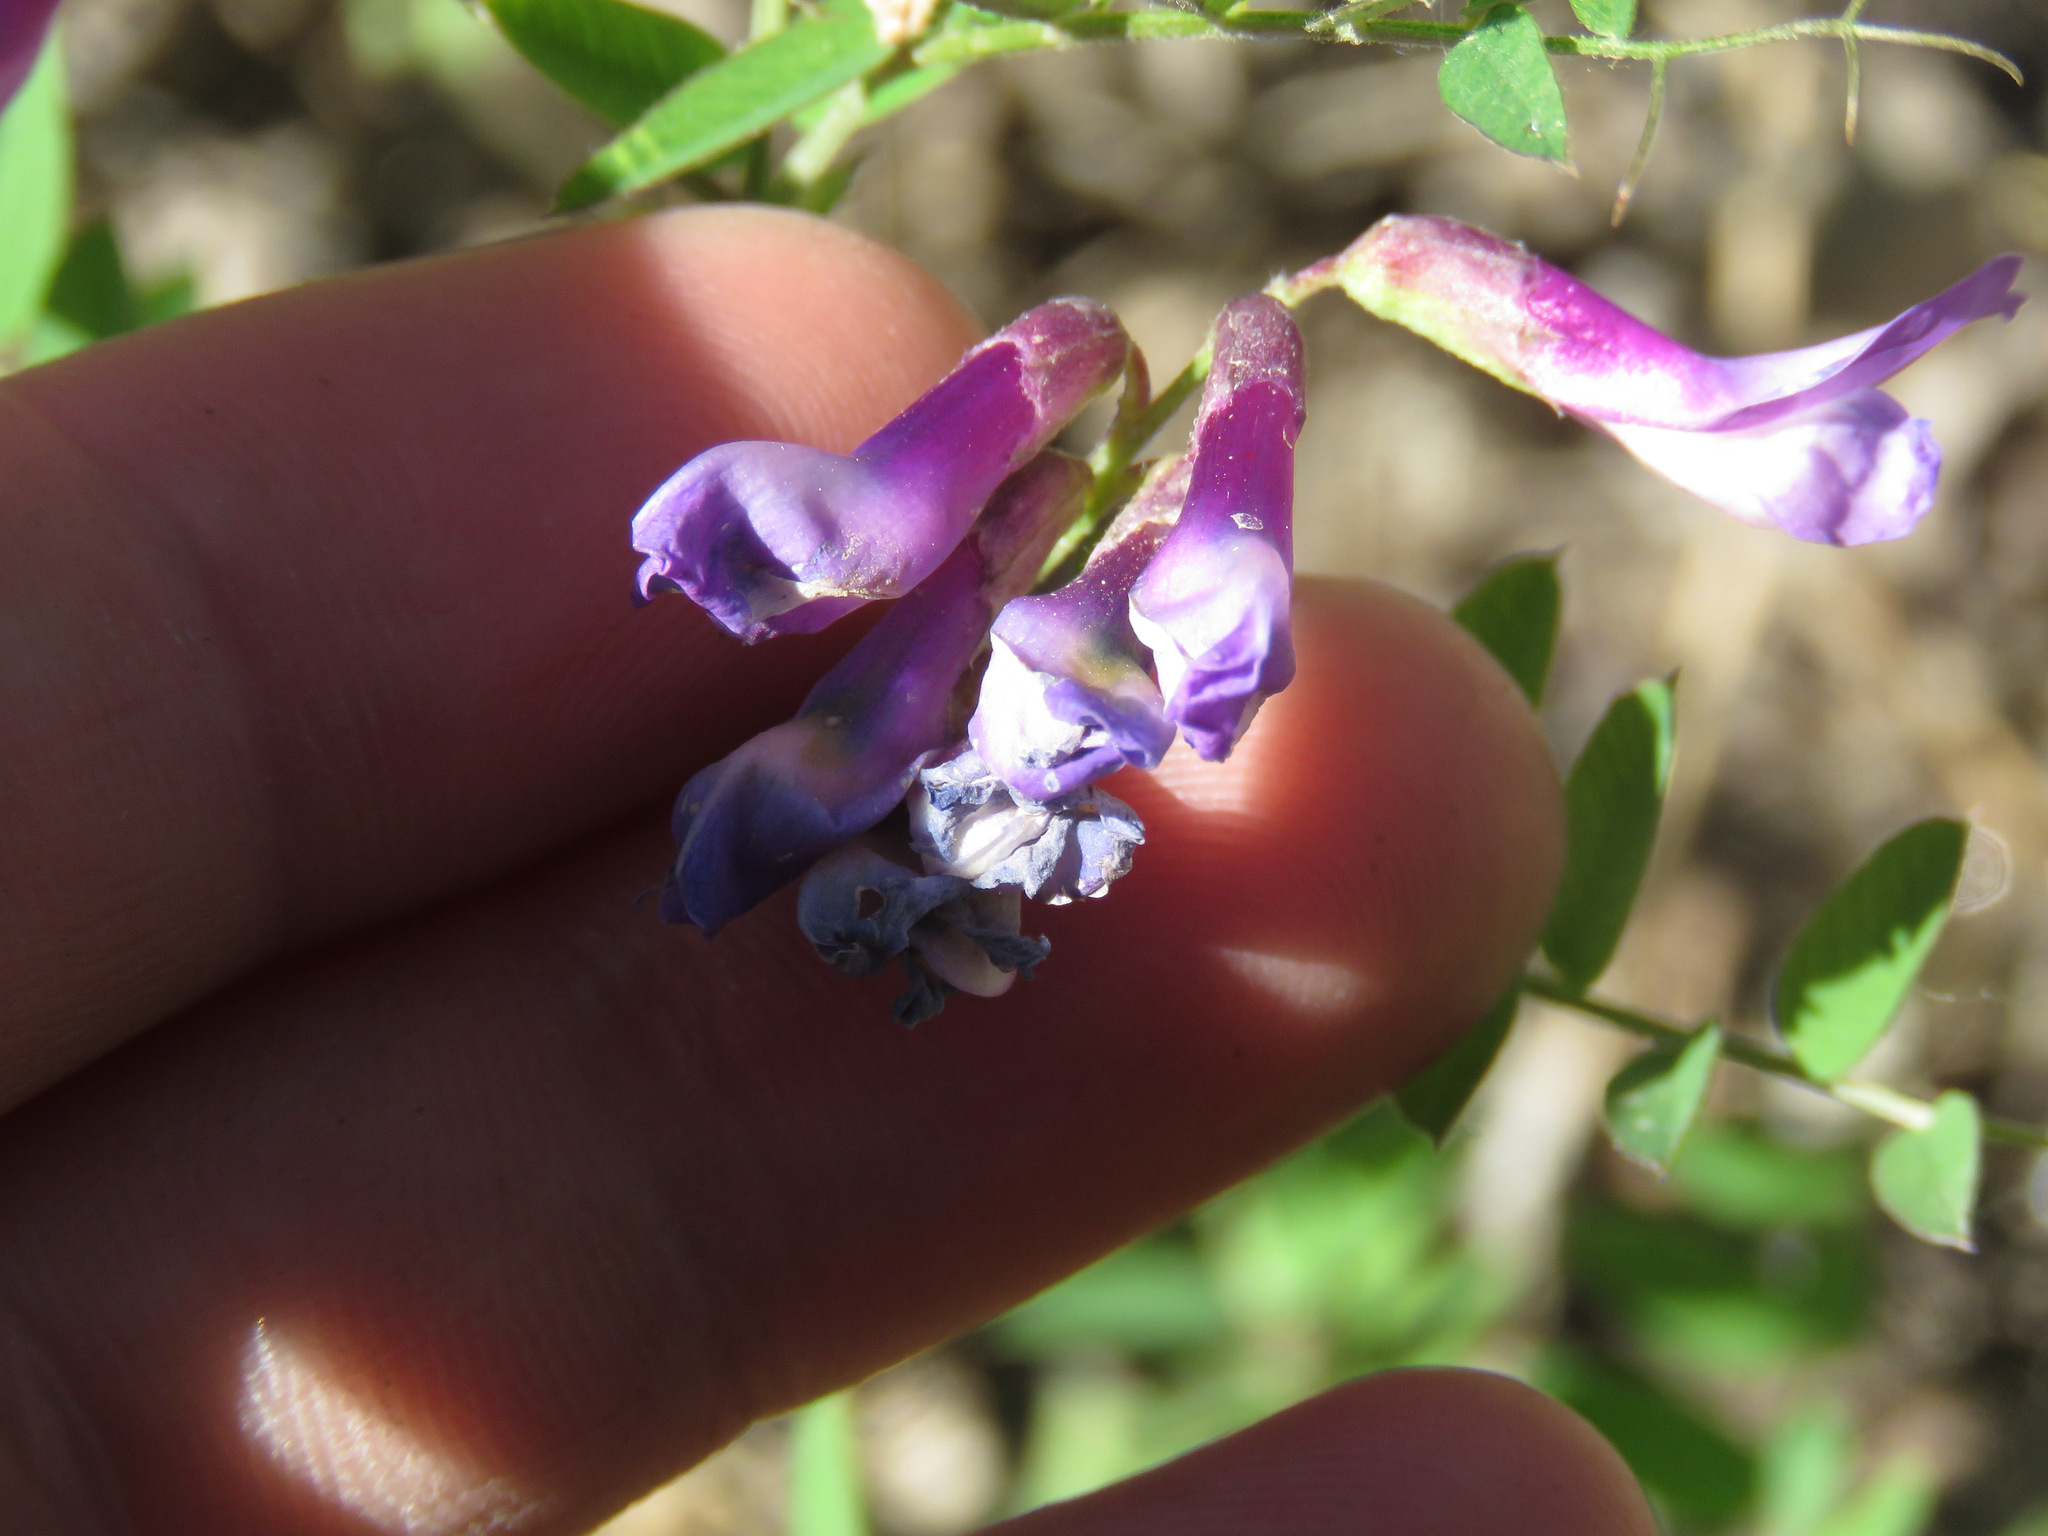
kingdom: Plantae
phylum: Tracheophyta
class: Magnoliopsida
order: Fabales
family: Fabaceae
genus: Vicia
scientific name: Vicia americana
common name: American vetch
